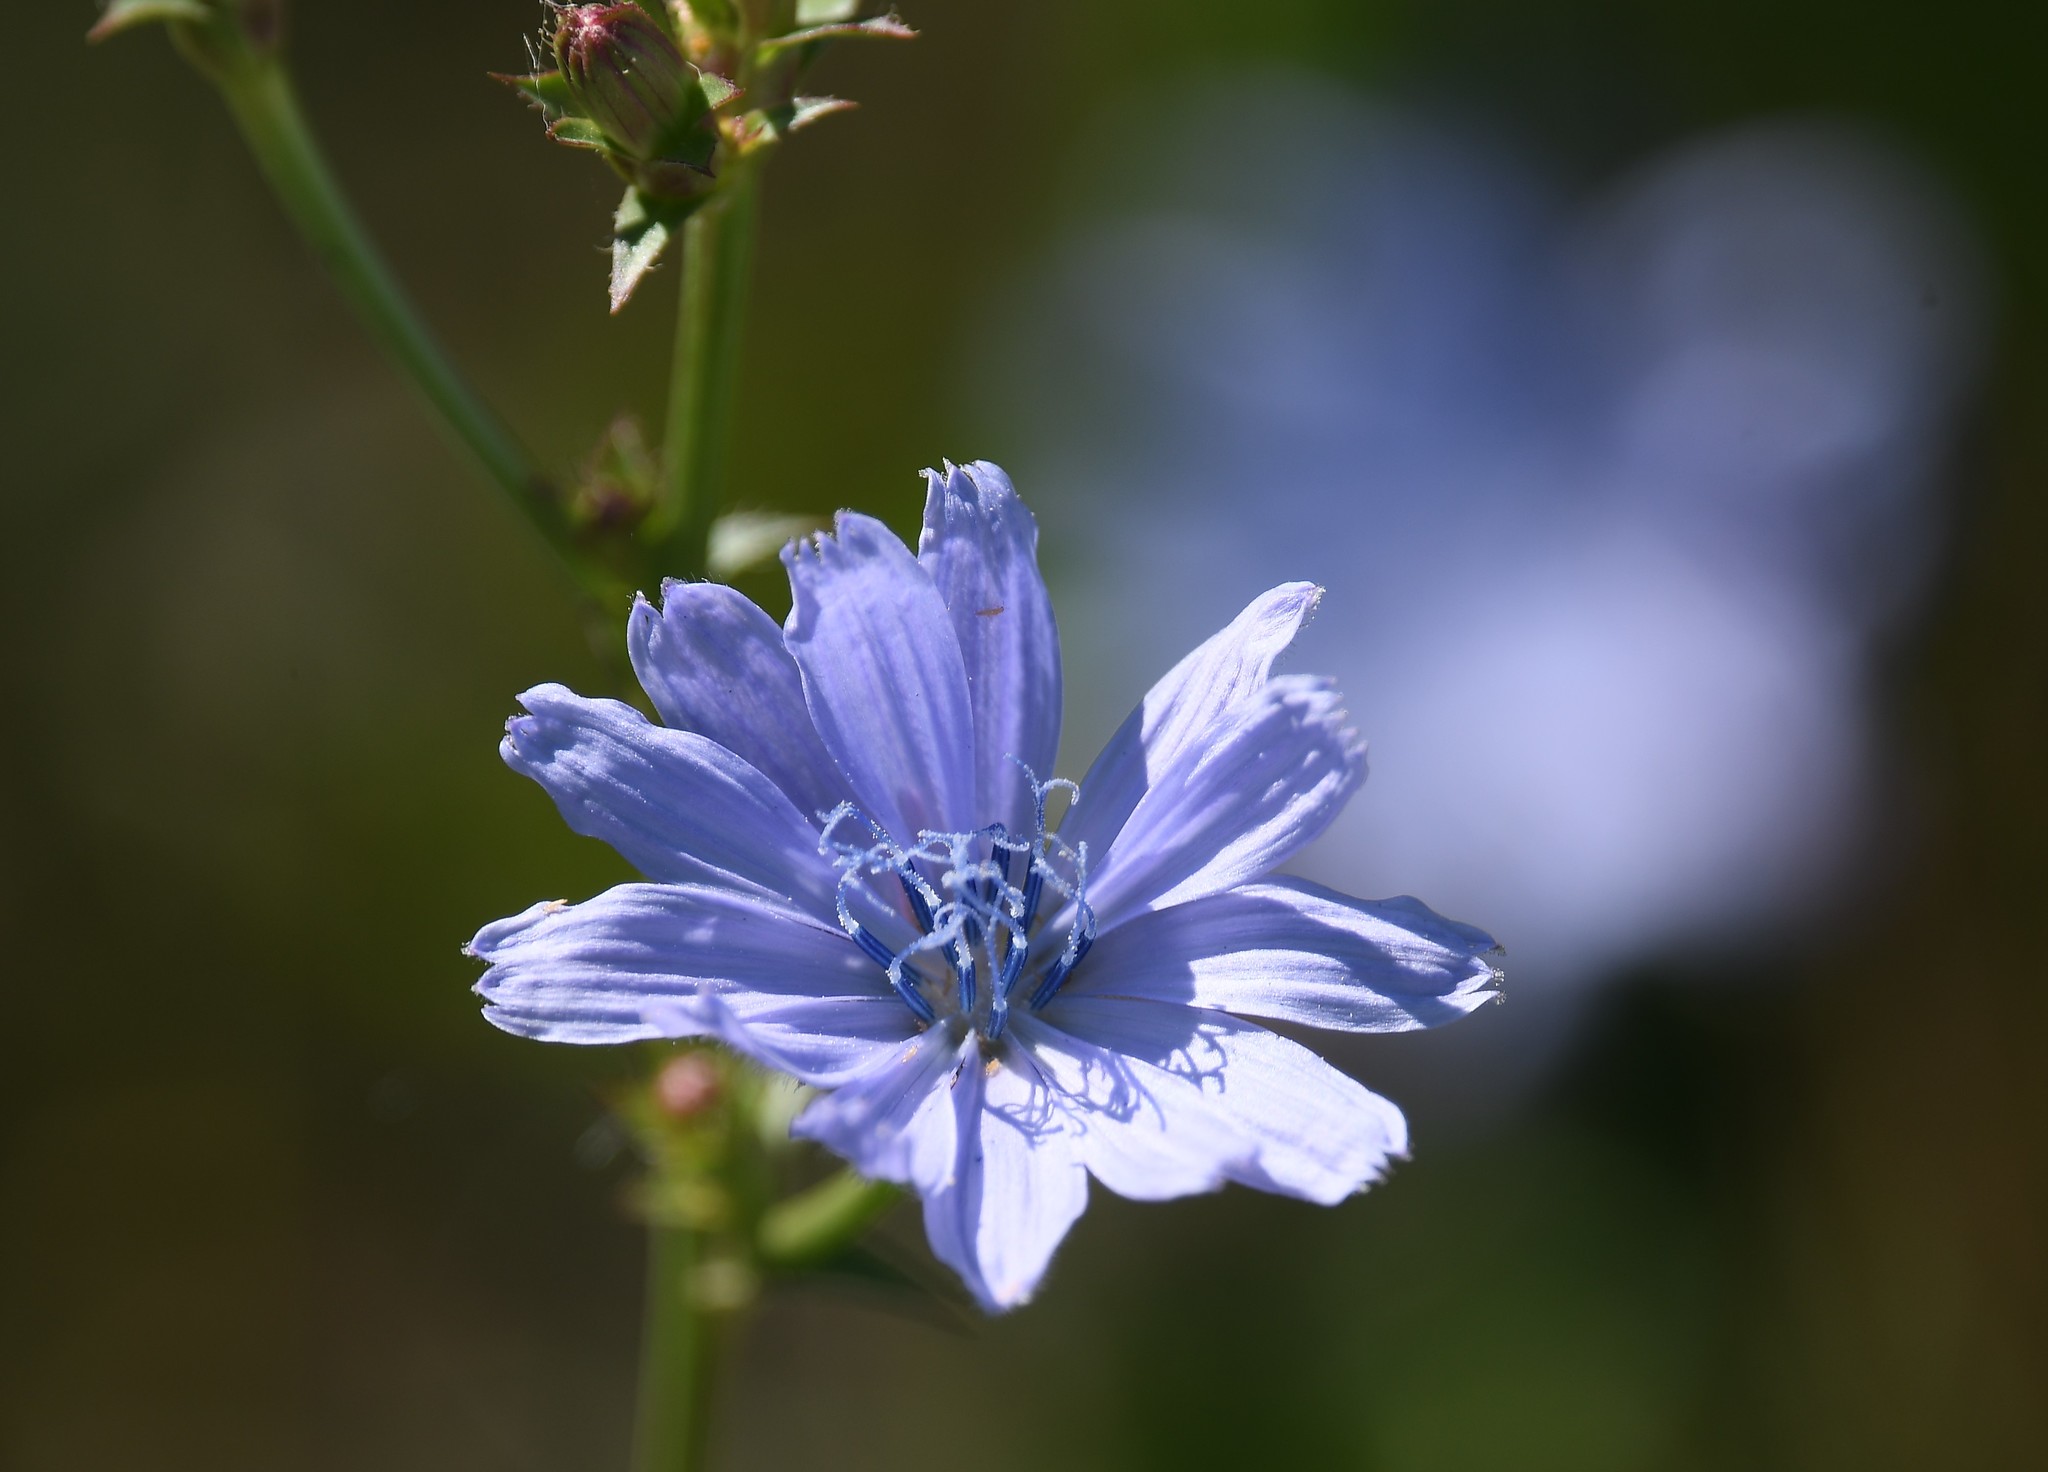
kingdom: Plantae
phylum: Tracheophyta
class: Magnoliopsida
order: Asterales
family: Asteraceae
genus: Cichorium
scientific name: Cichorium intybus
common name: Chicory
